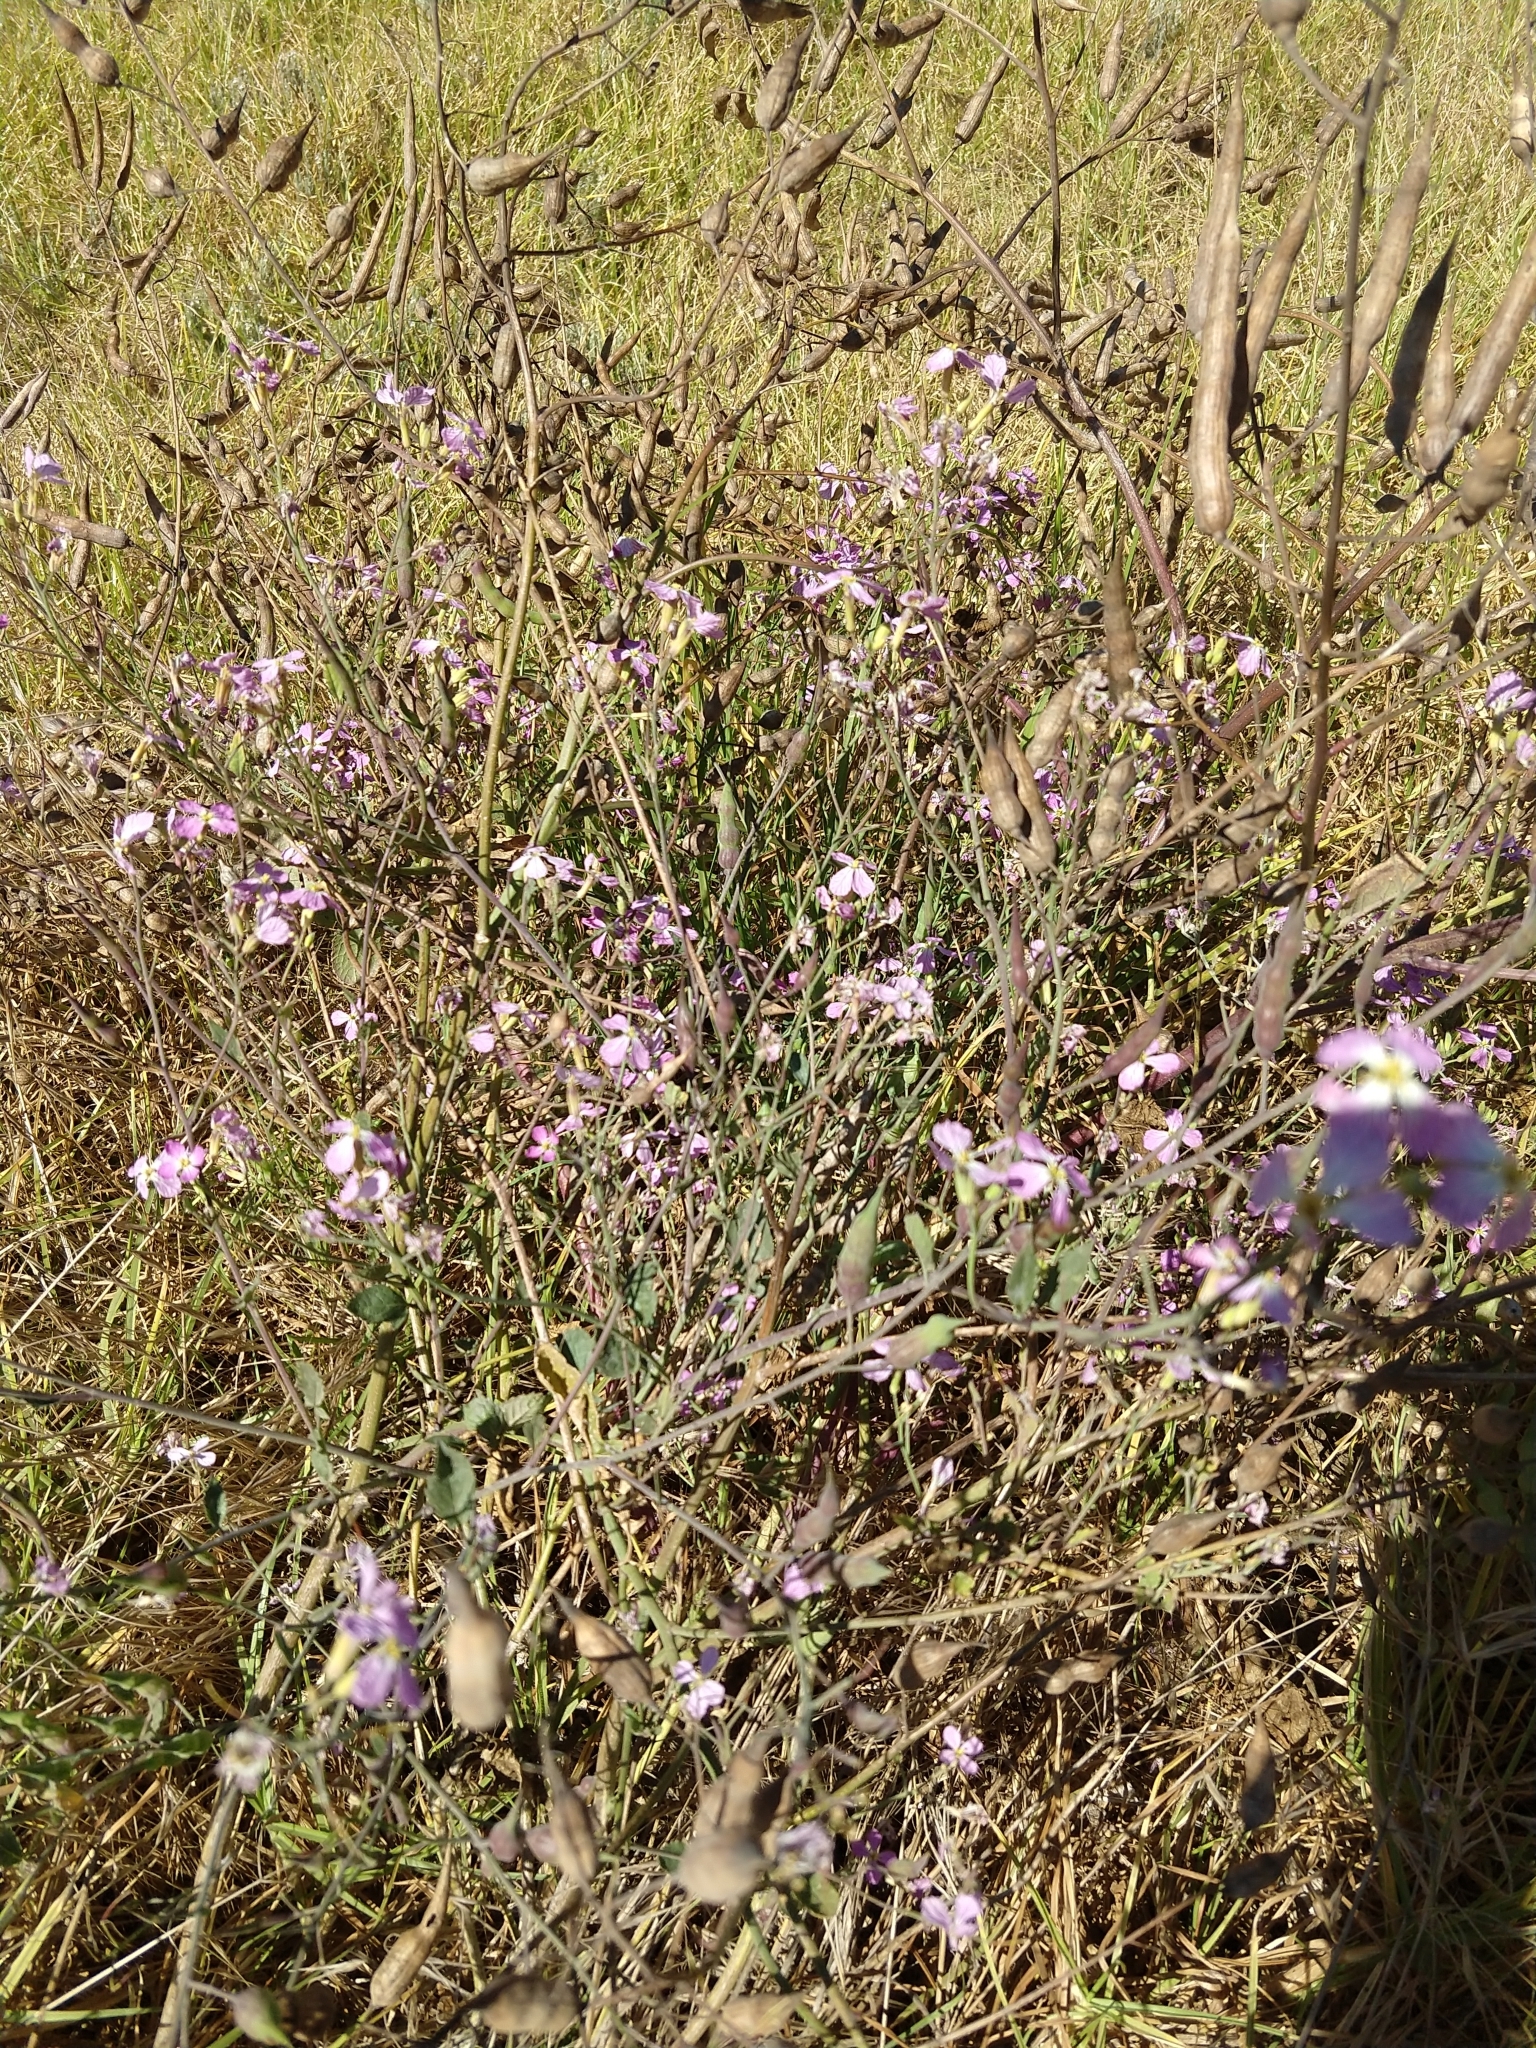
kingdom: Plantae
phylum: Tracheophyta
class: Magnoliopsida
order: Brassicales
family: Brassicaceae
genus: Raphanus
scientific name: Raphanus sativus
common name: Cultivated radish
